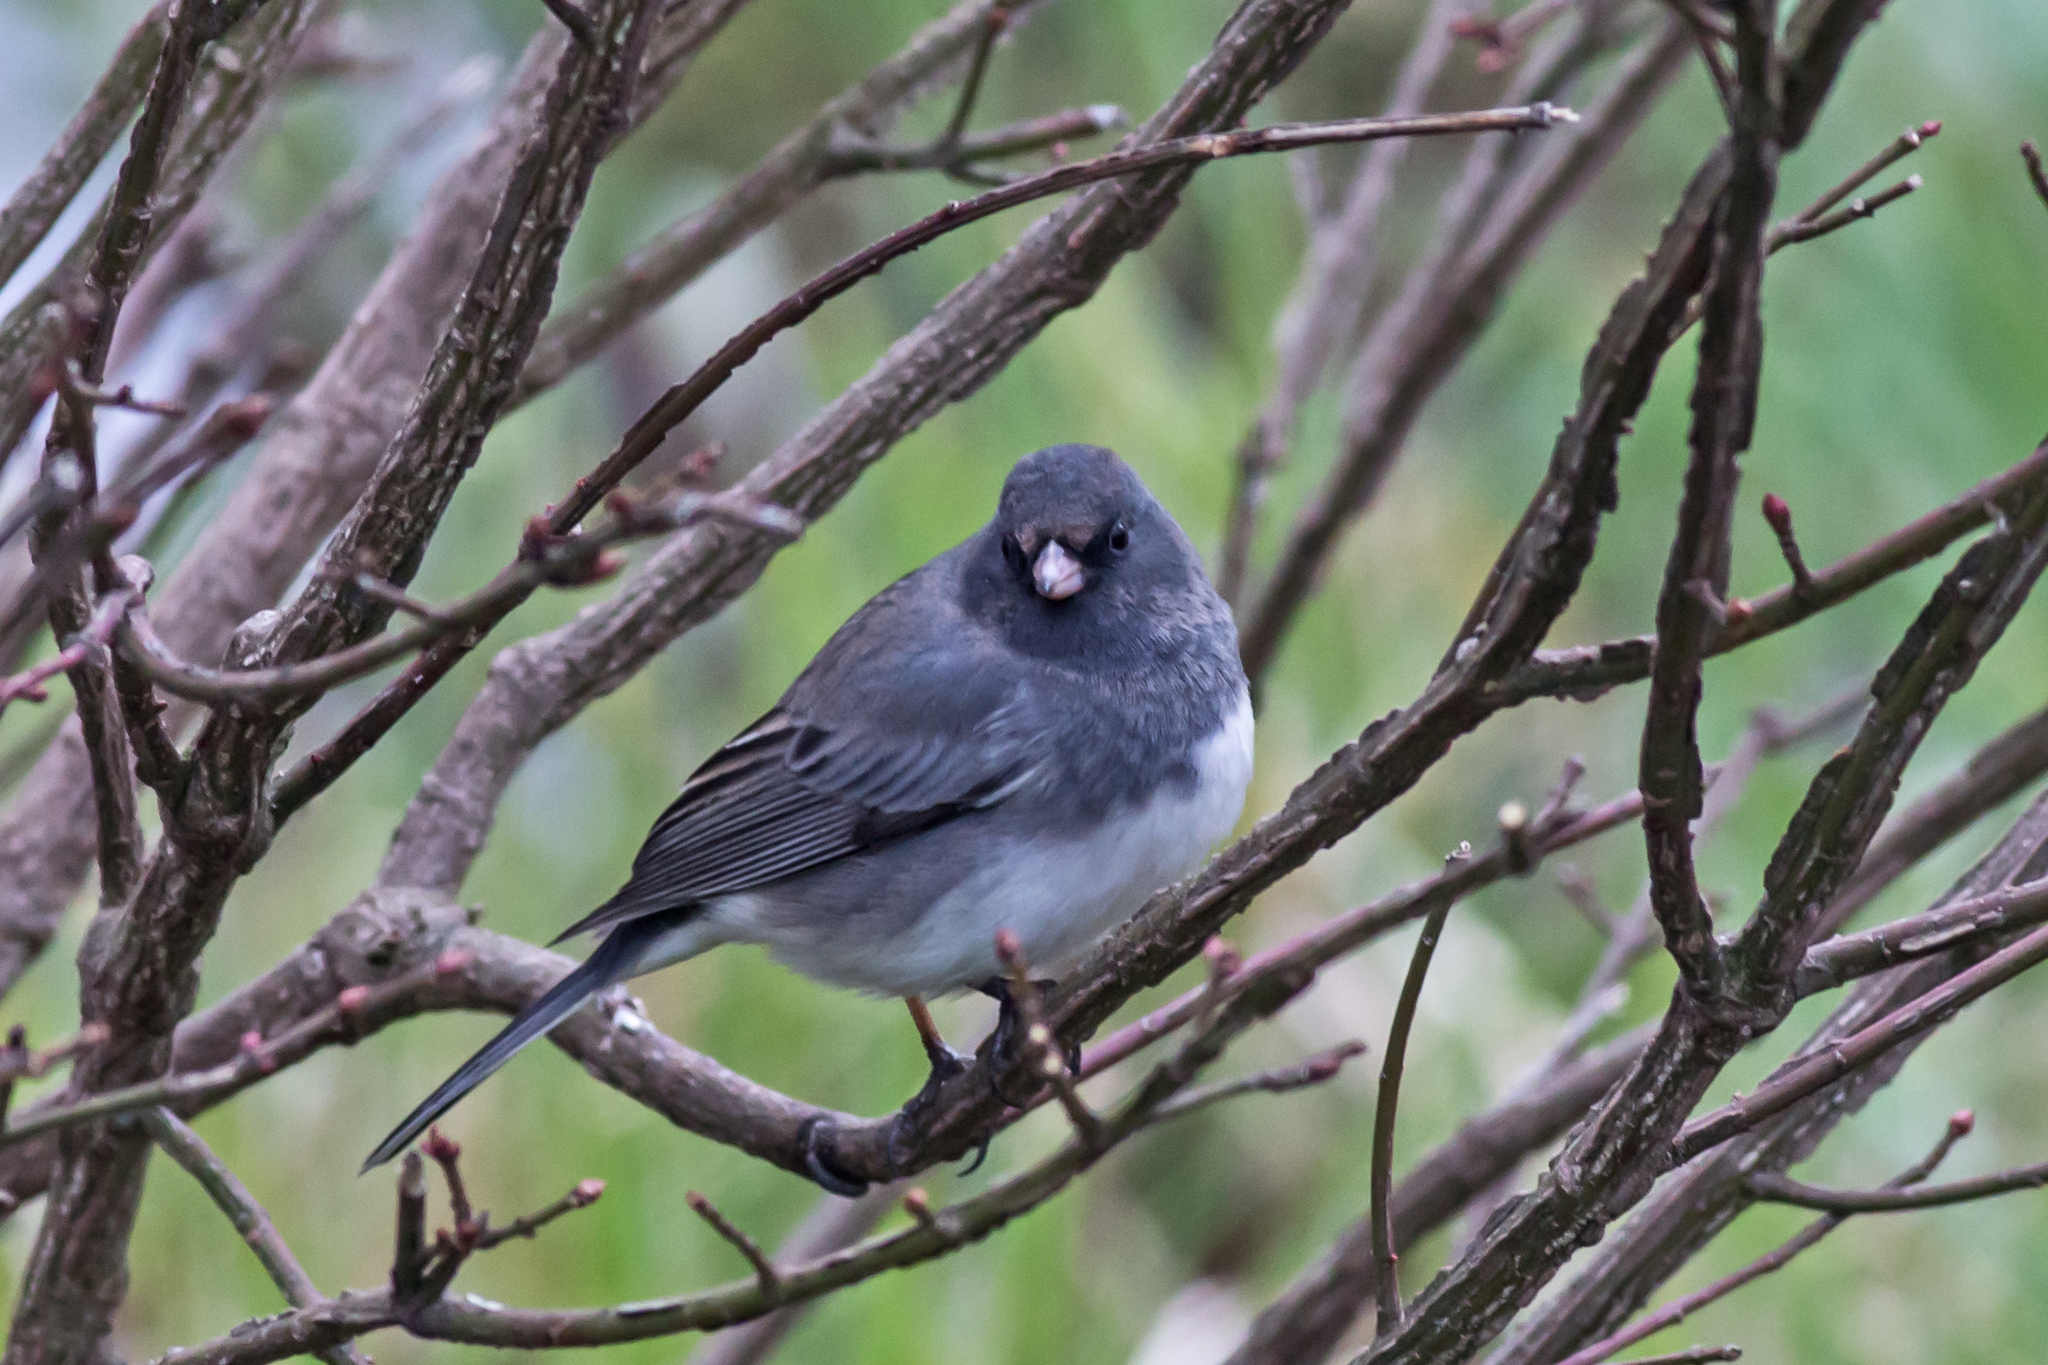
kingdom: Animalia
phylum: Chordata
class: Aves
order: Passeriformes
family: Passerellidae
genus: Junco
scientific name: Junco hyemalis
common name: Dark-eyed junco
